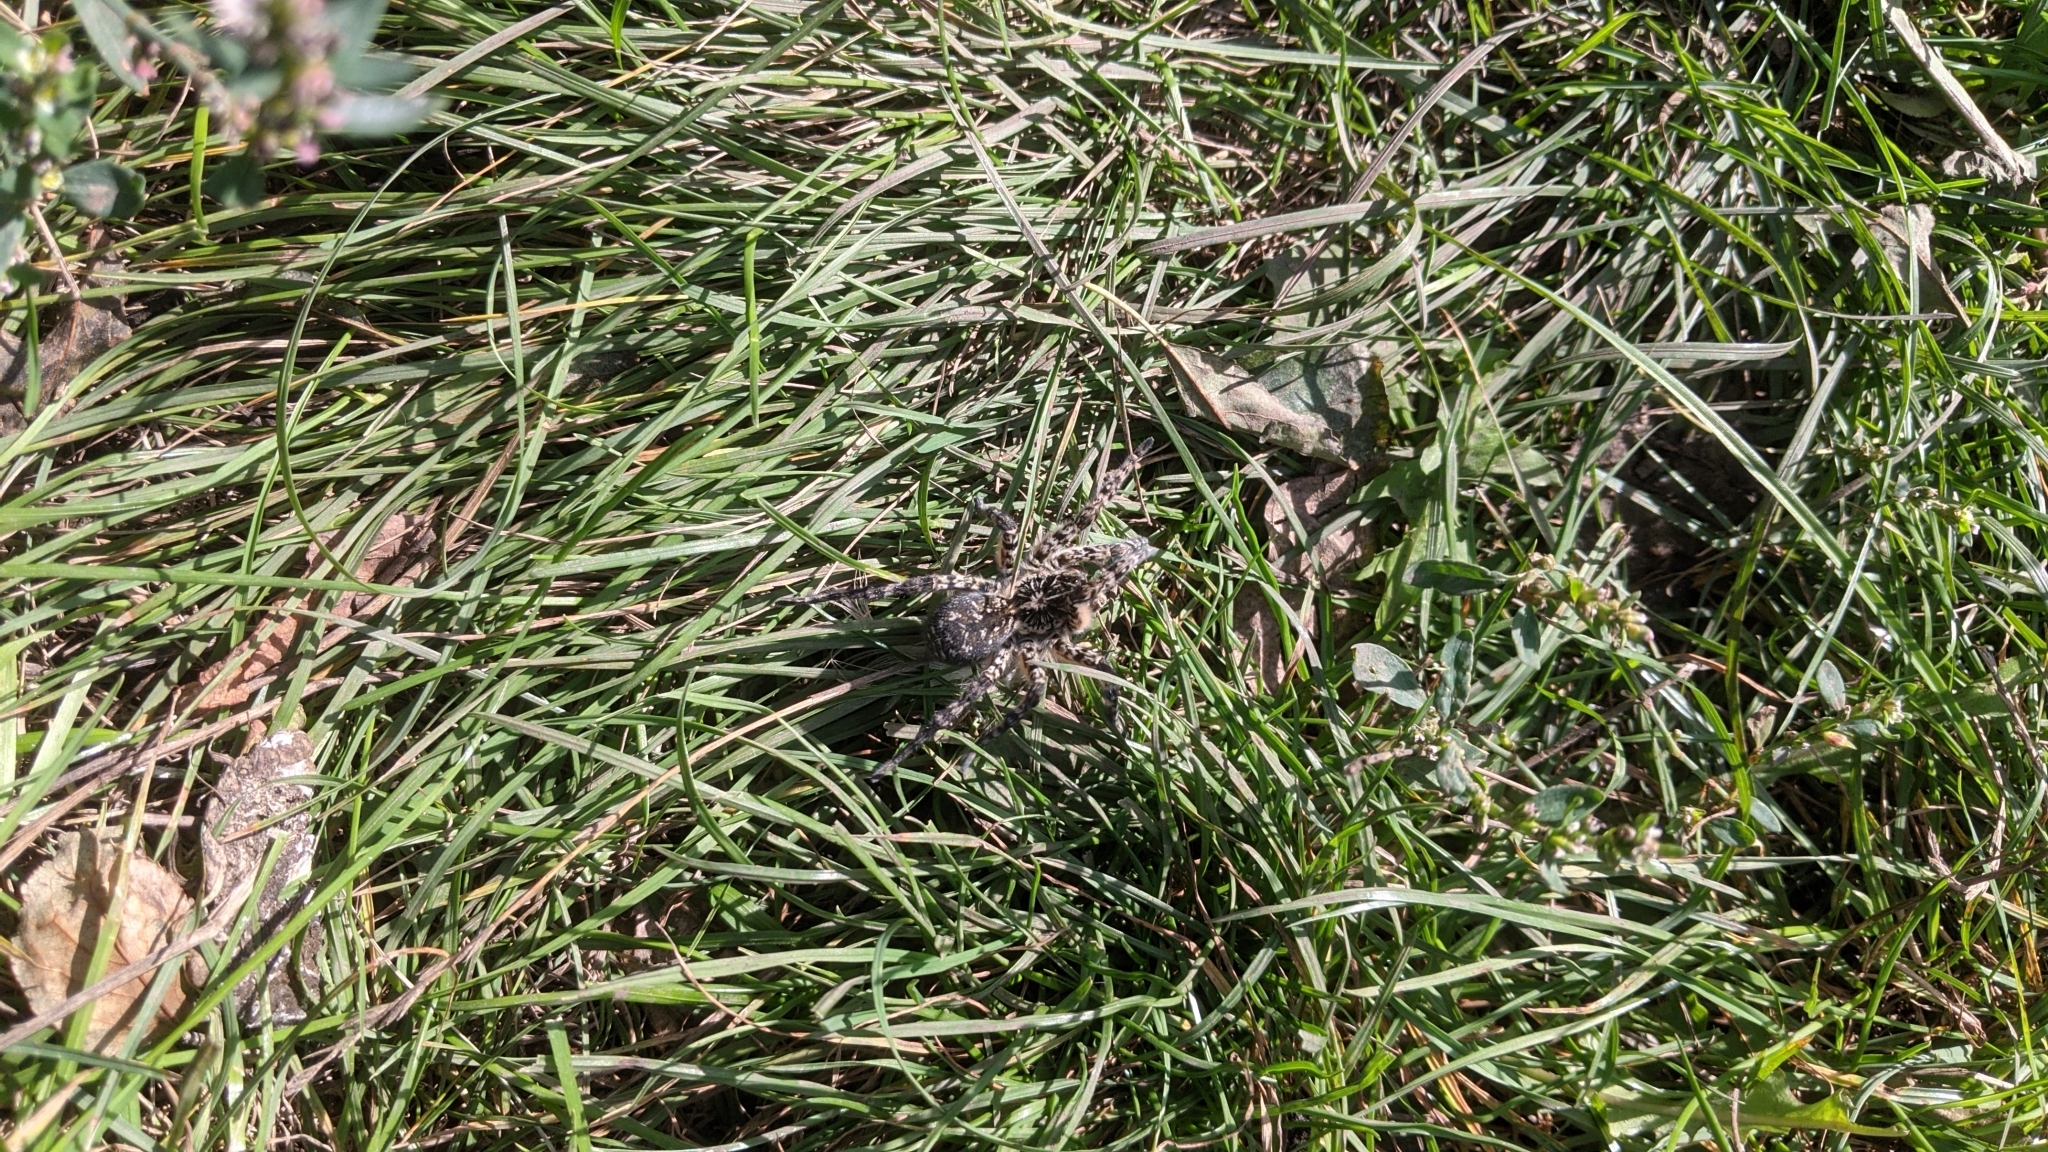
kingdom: Animalia
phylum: Arthropoda
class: Arachnida
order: Araneae
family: Lycosidae
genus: Lycosa
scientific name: Lycosa singoriensis
